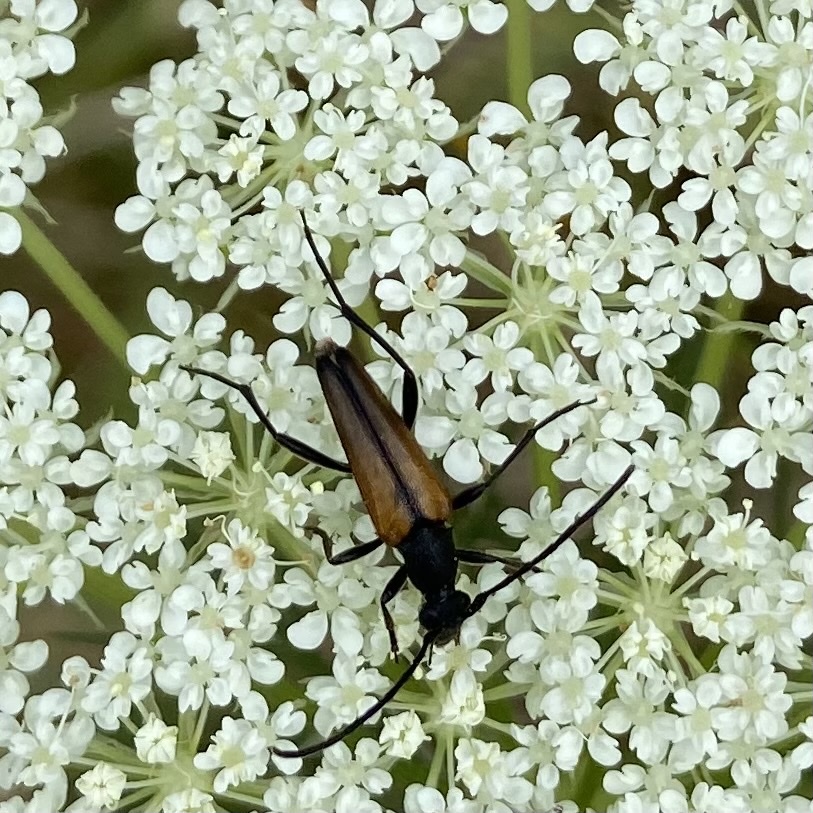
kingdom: Animalia
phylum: Arthropoda
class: Insecta
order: Coleoptera
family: Cerambycidae
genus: Stenurella
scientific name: Stenurella melanura
